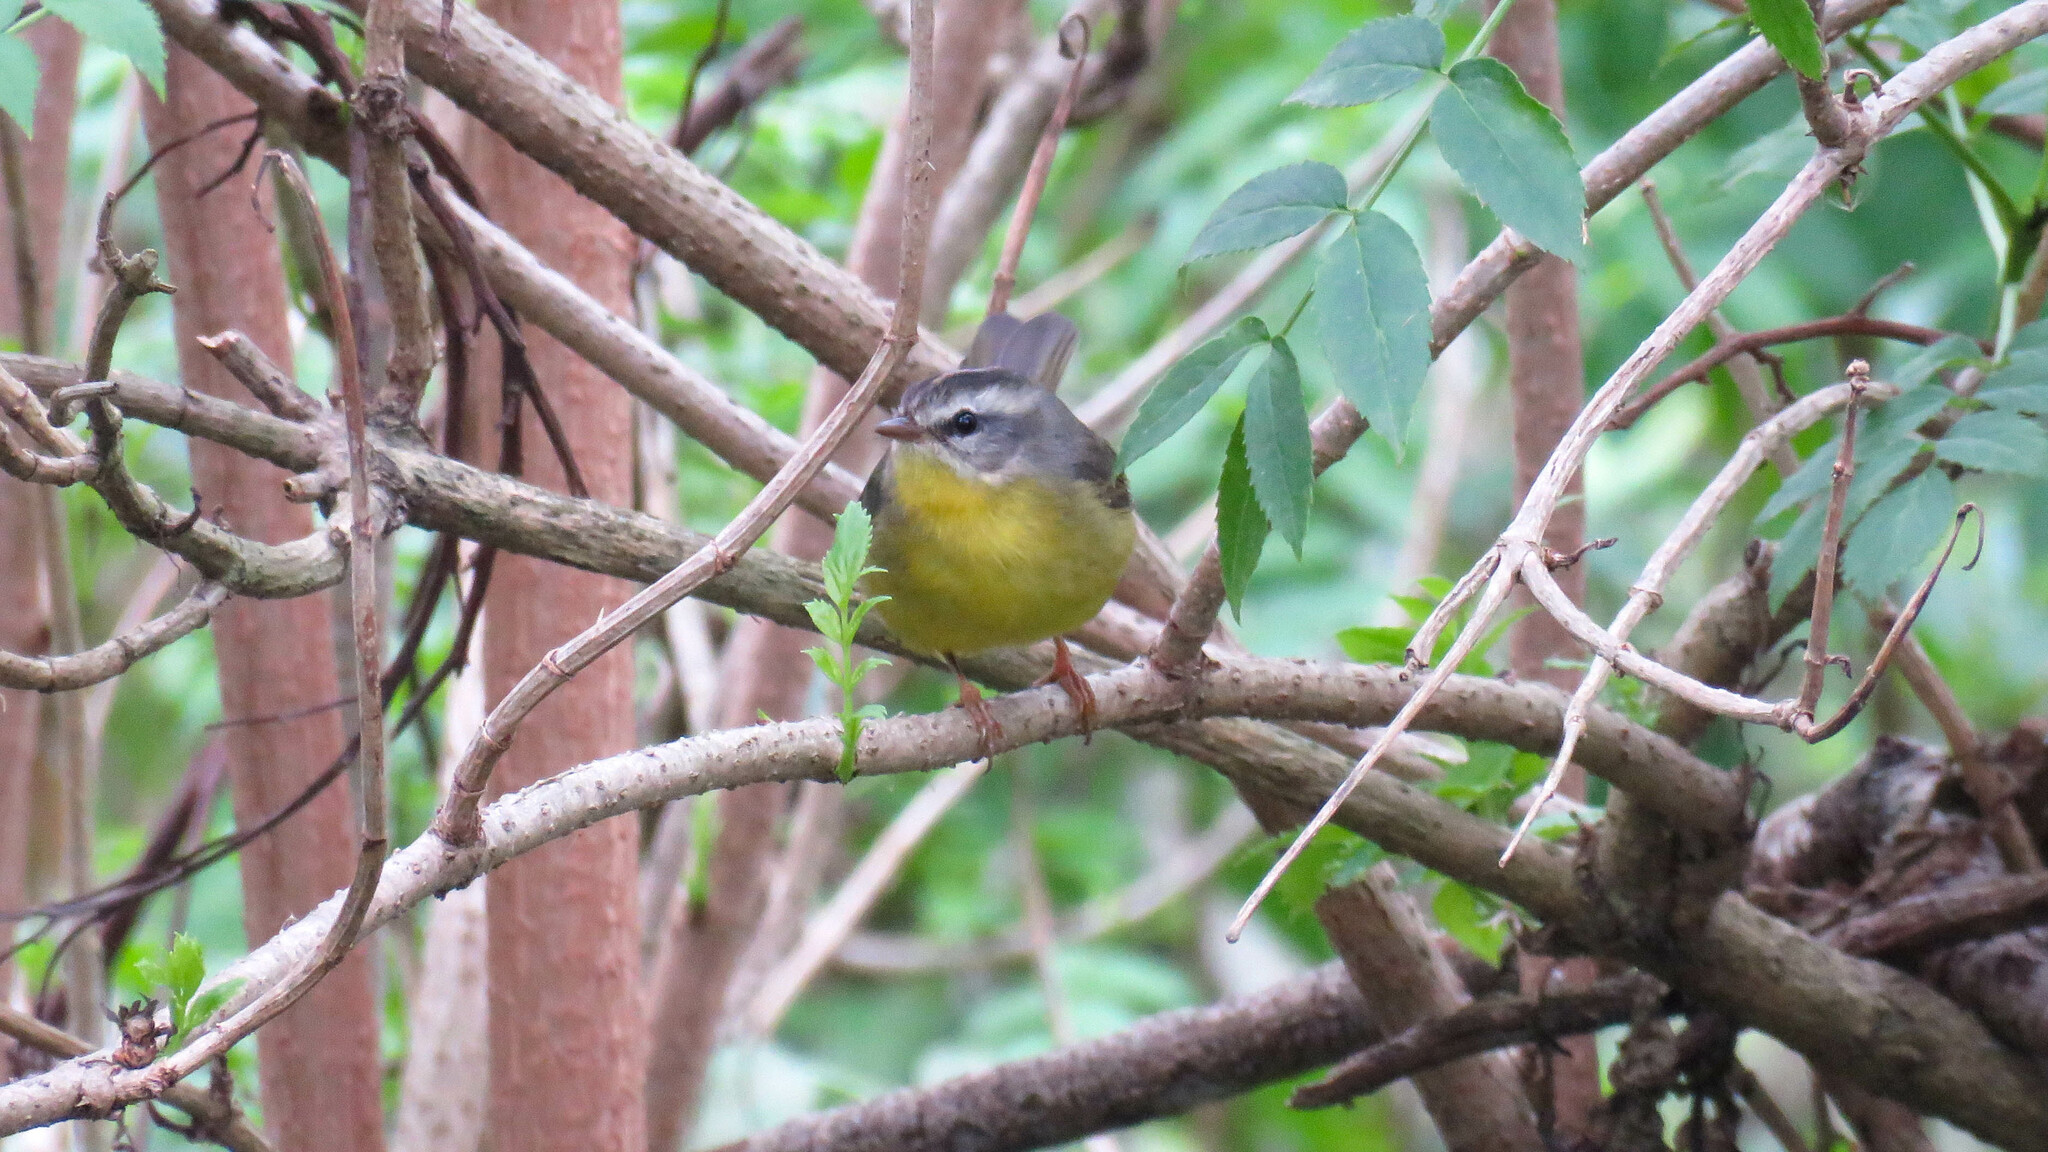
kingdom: Animalia
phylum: Chordata
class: Aves
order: Passeriformes
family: Parulidae
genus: Basileuterus
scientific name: Basileuterus culicivorus
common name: Golden-crowned warbler
